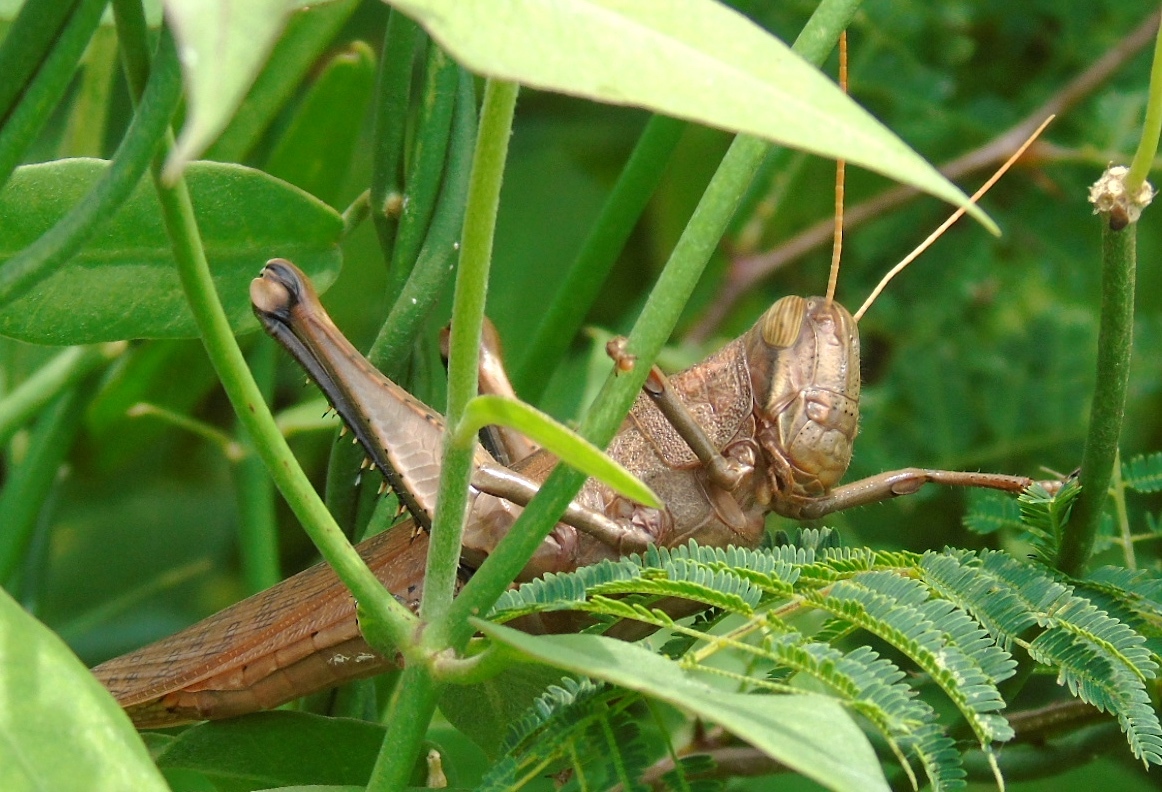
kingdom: Animalia
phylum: Arthropoda
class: Insecta
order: Orthoptera
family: Acrididae
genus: Schistocerca
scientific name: Schistocerca
